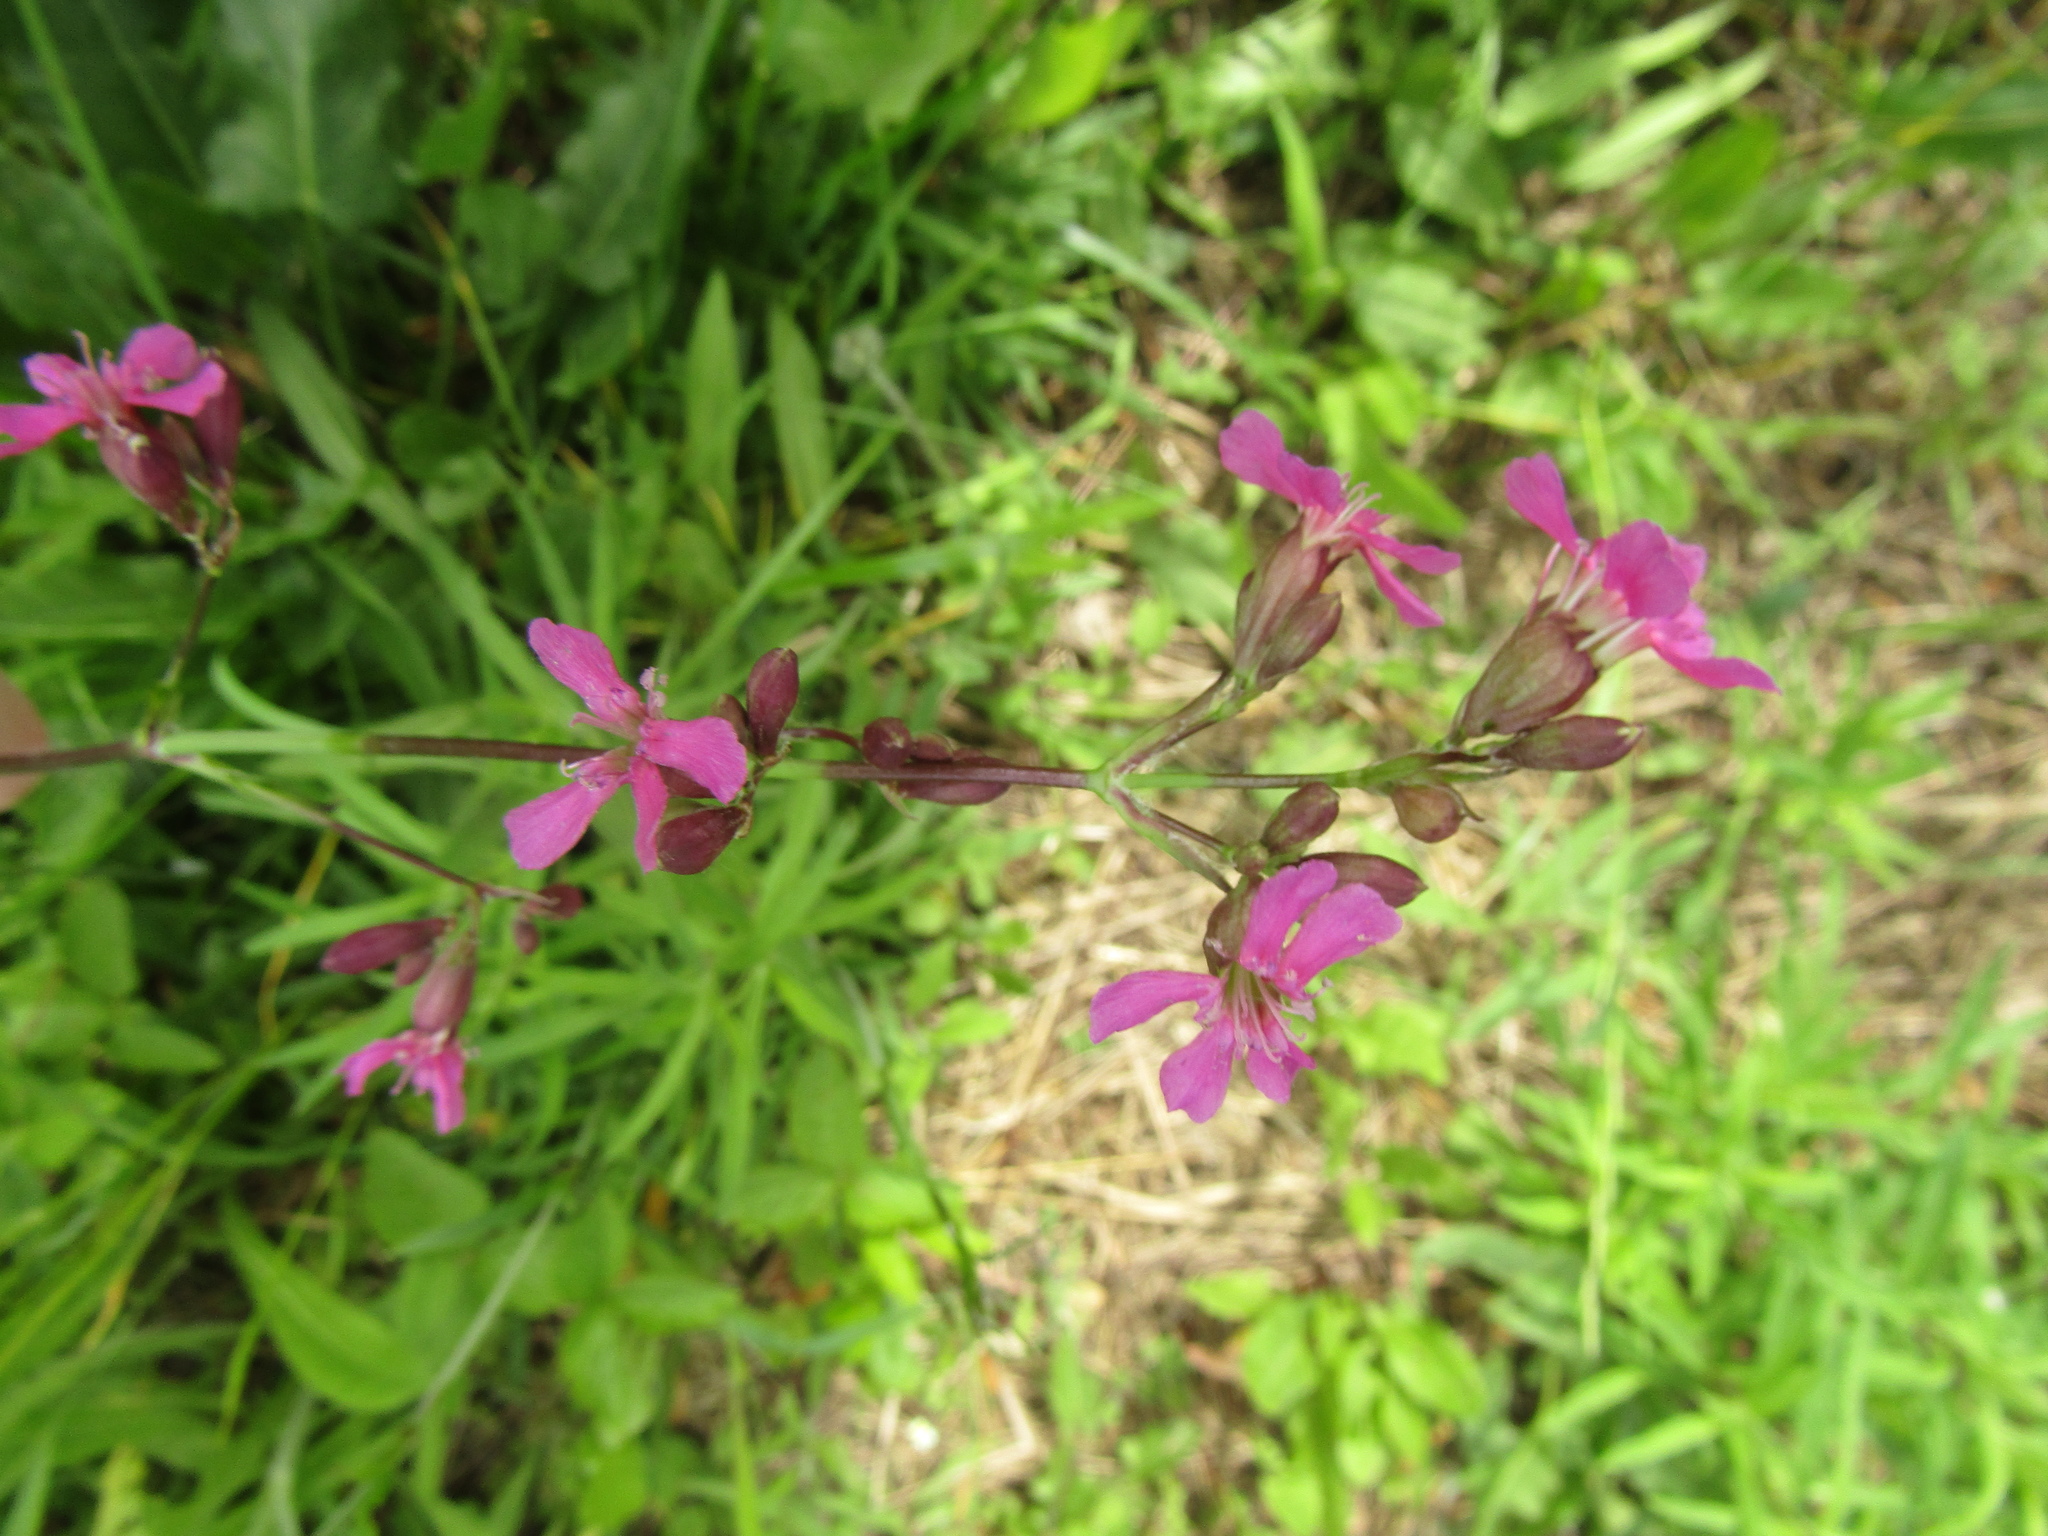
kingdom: Plantae
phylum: Tracheophyta
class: Magnoliopsida
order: Caryophyllales
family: Caryophyllaceae
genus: Viscaria
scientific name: Viscaria vulgaris
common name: Clammy campion
